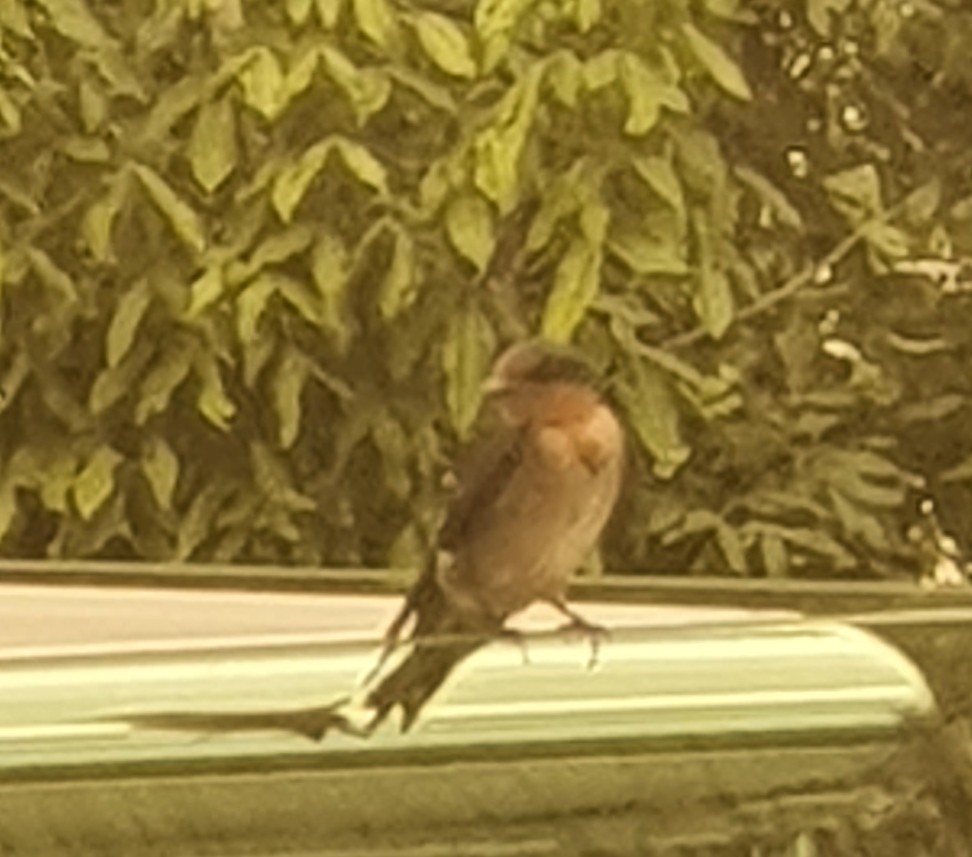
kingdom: Animalia
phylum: Chordata
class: Aves
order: Passeriformes
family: Hirundinidae
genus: Hirundo
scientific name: Hirundo tahitica
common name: Pacific swallow
